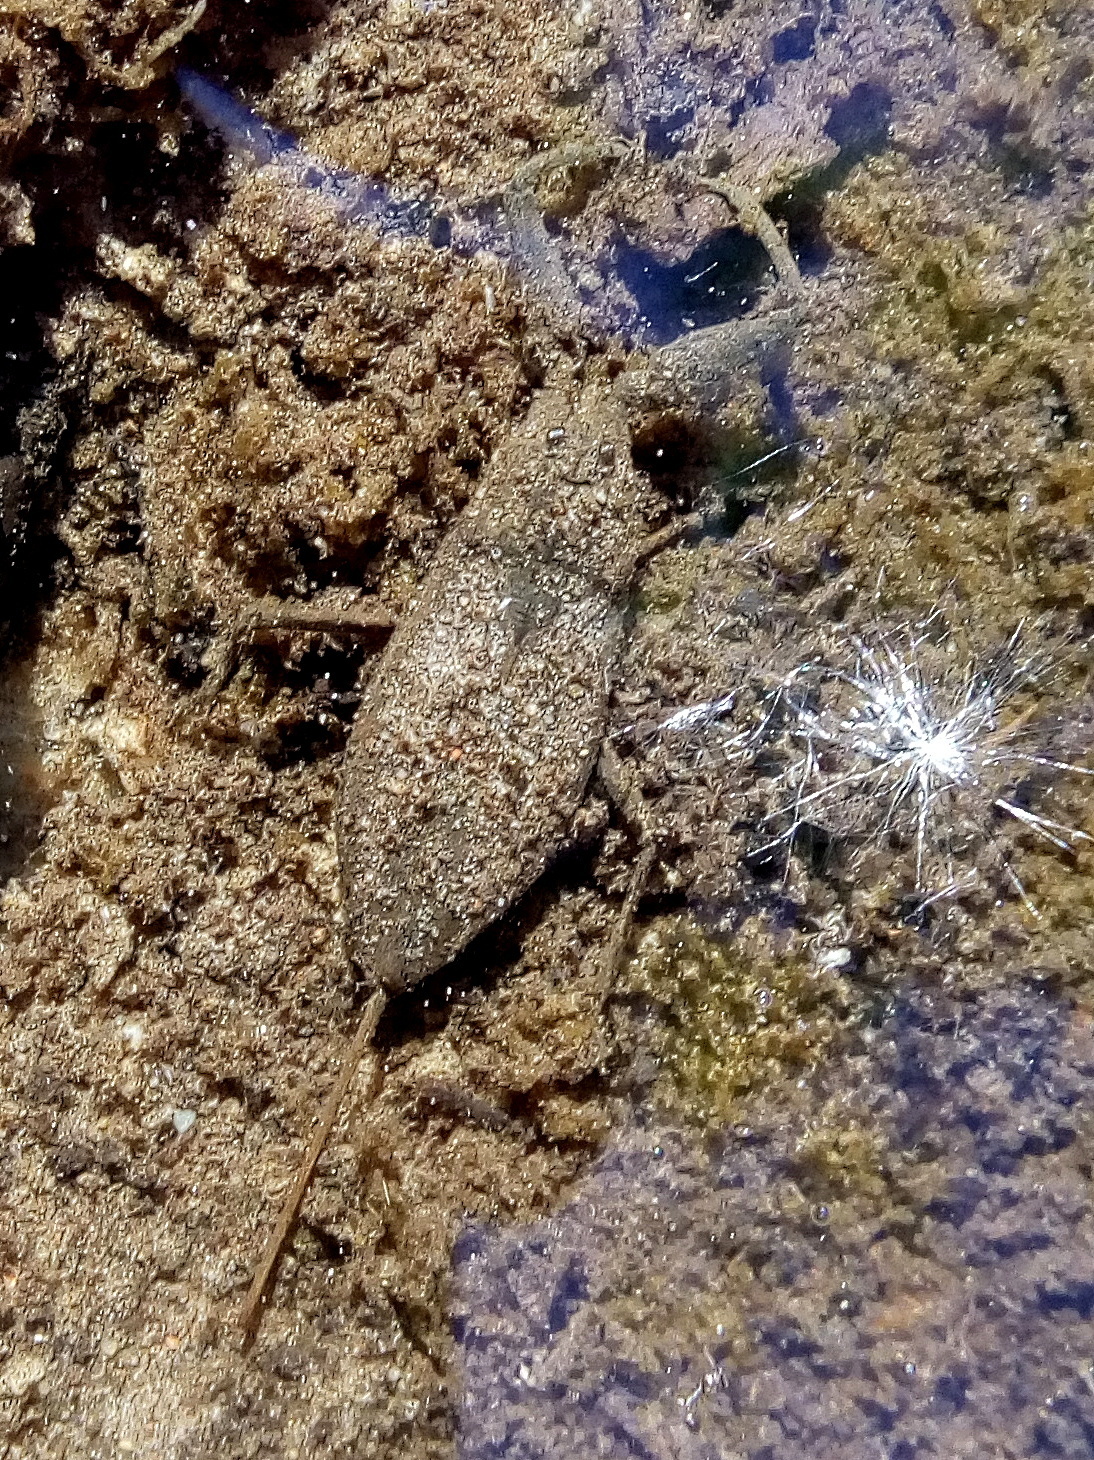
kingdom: Animalia
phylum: Arthropoda
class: Insecta
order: Hemiptera
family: Nepidae
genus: Nepa
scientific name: Nepa cinerea
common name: Water scorpion
